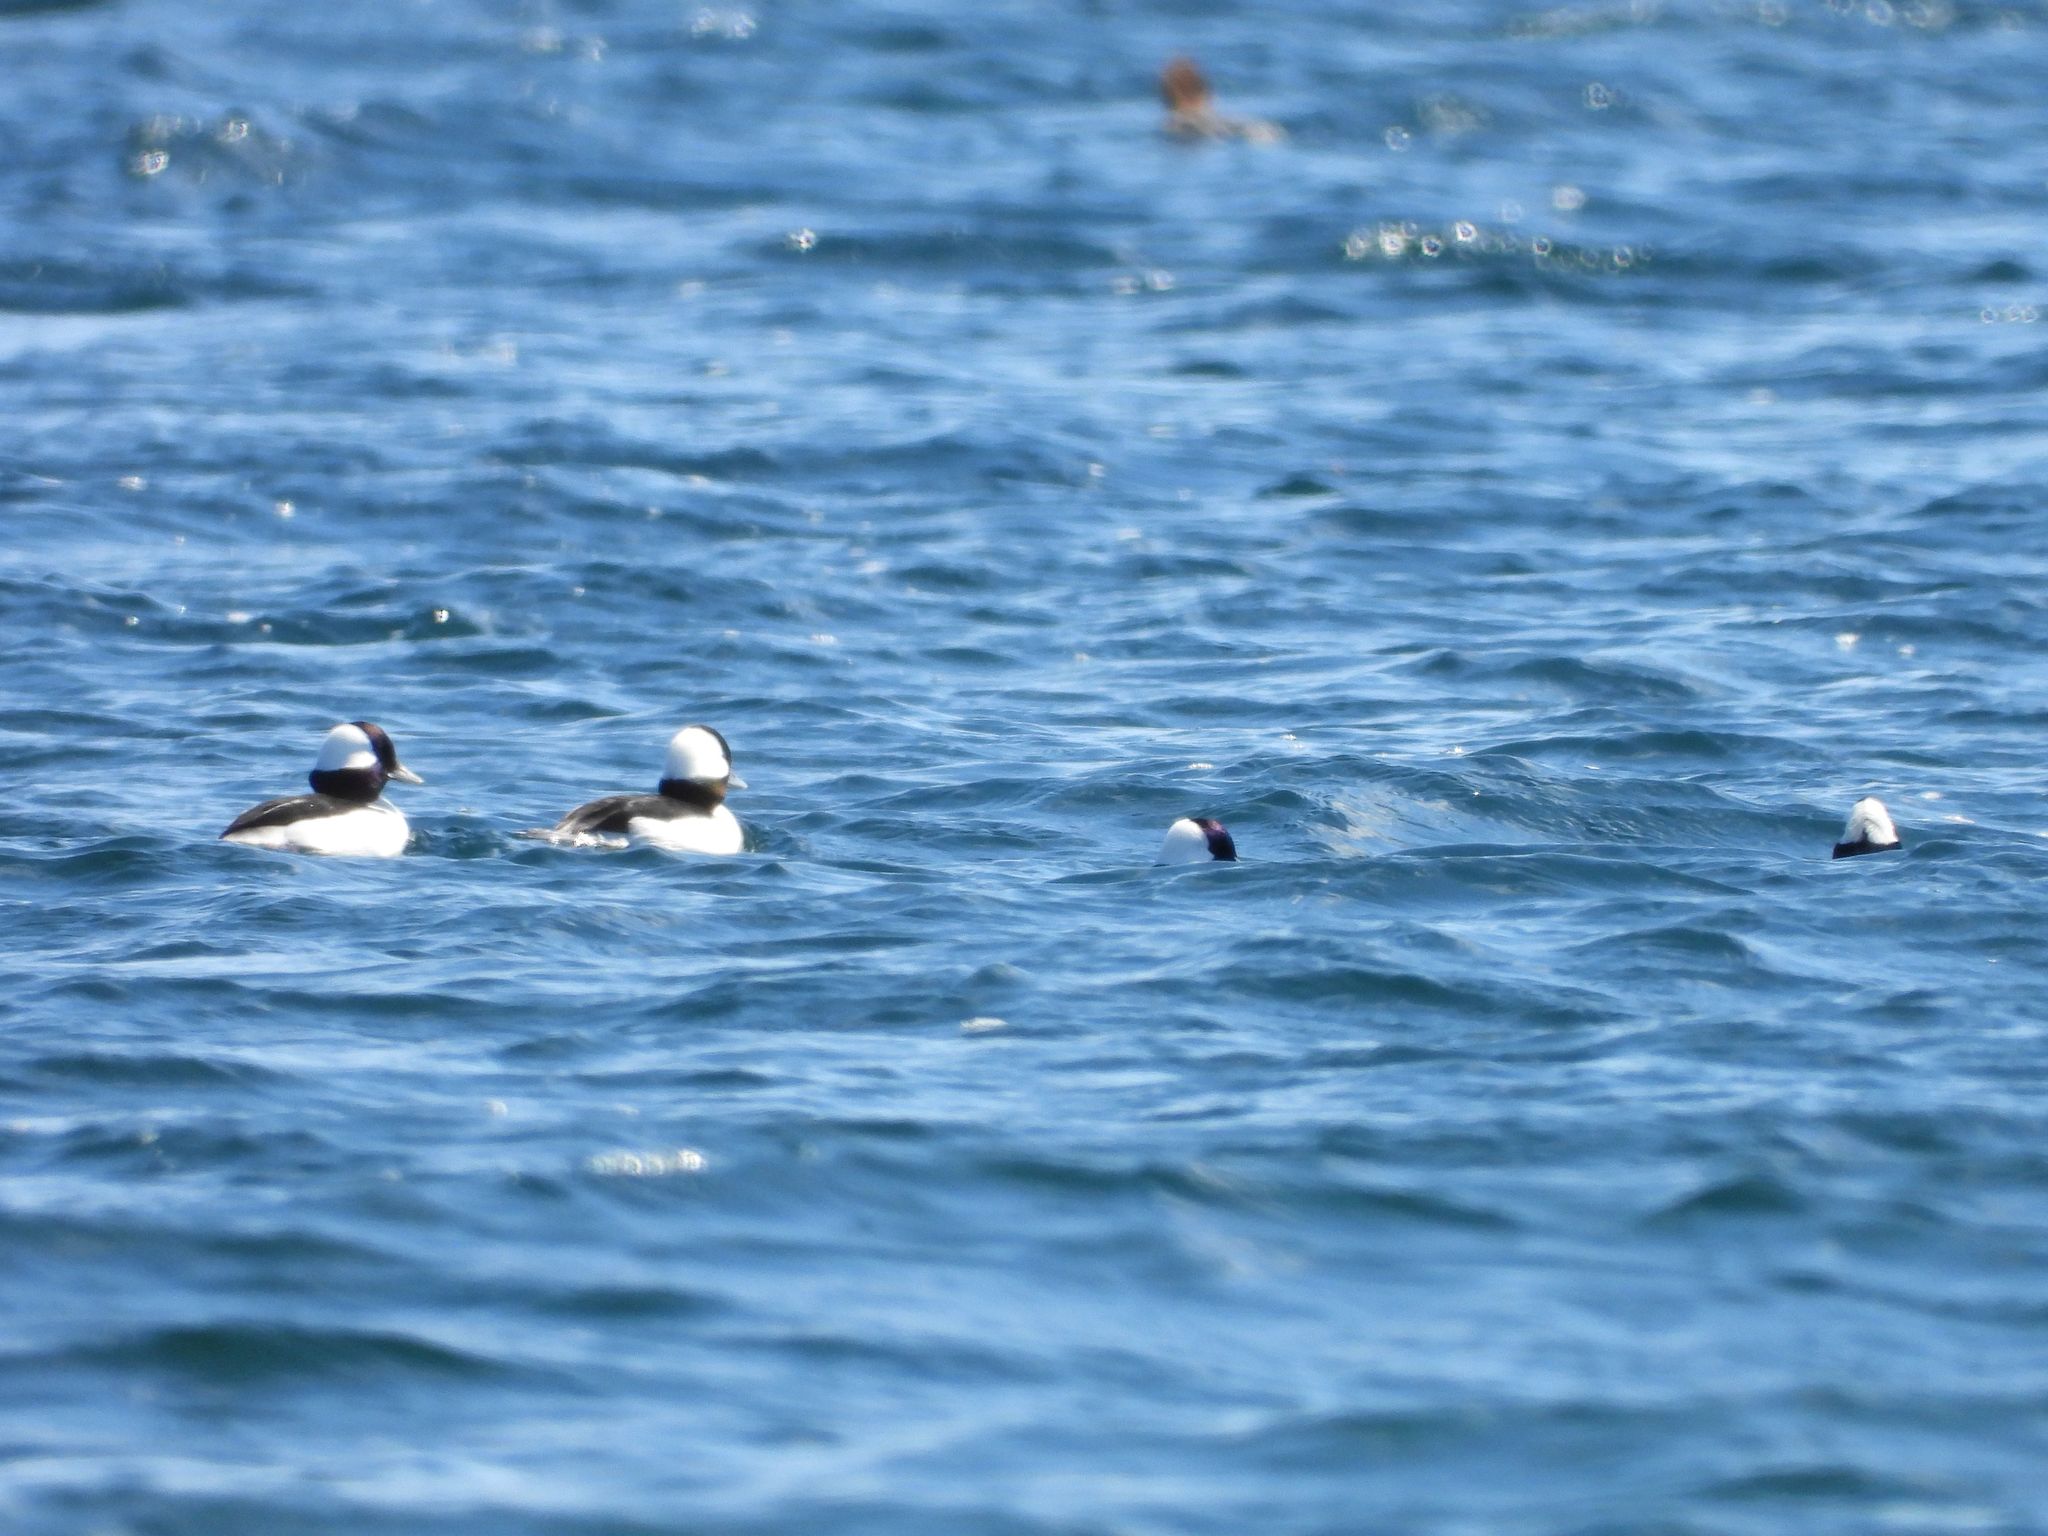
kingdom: Animalia
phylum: Chordata
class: Aves
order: Anseriformes
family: Anatidae
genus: Bucephala
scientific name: Bucephala albeola
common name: Bufflehead
